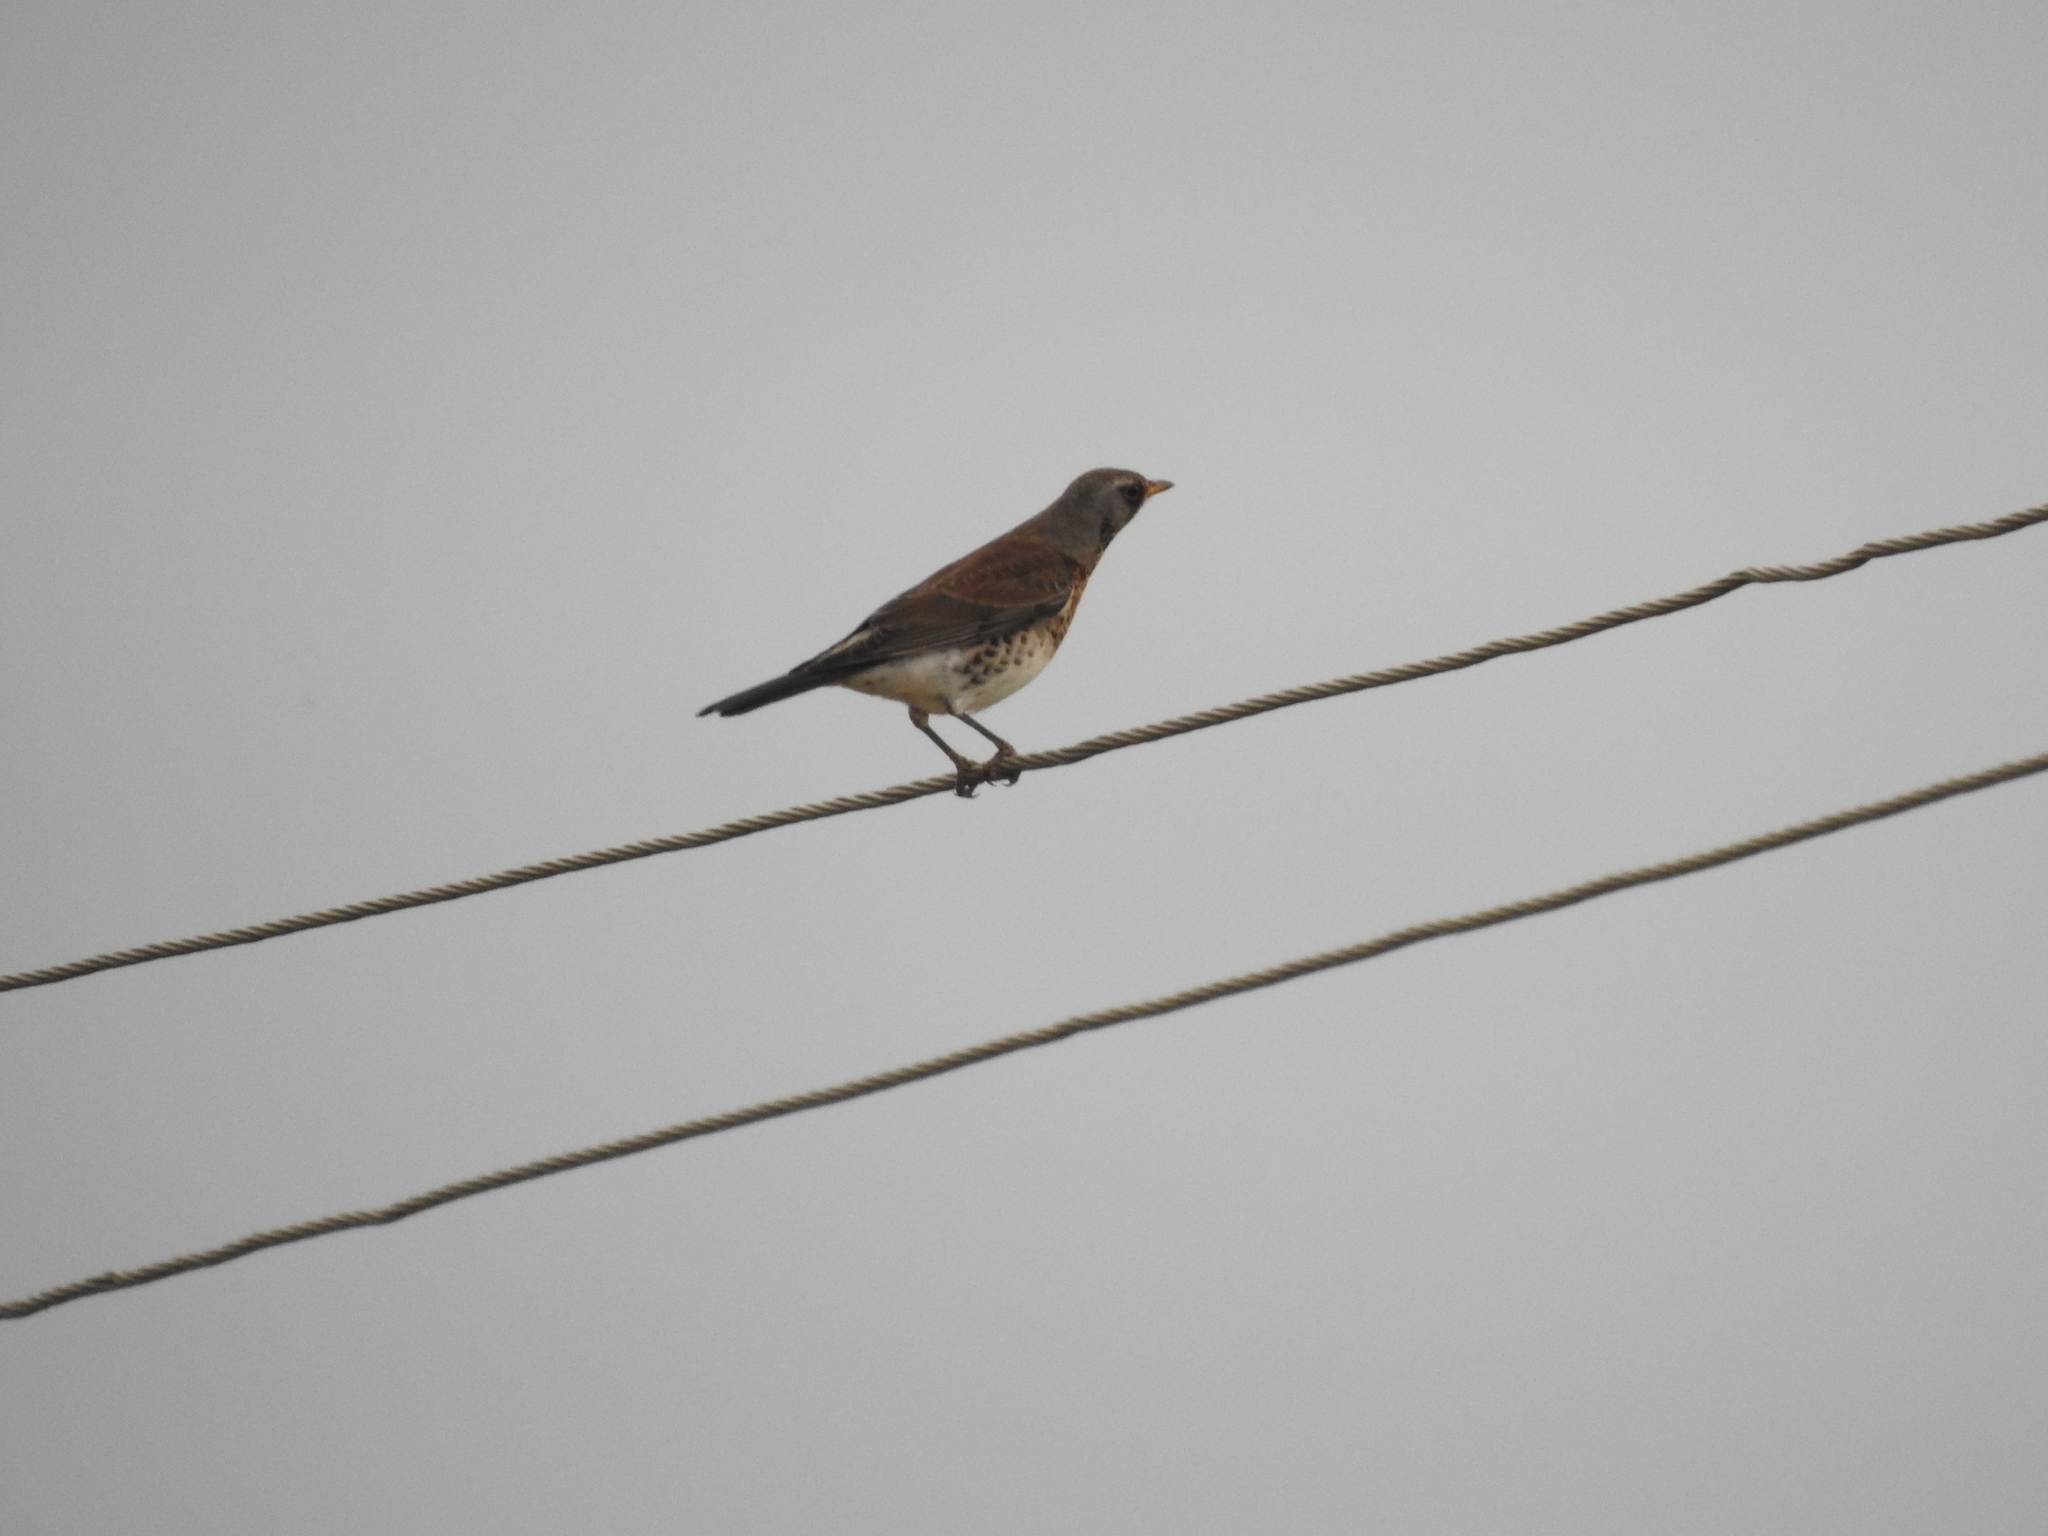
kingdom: Animalia
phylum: Chordata
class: Aves
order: Passeriformes
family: Turdidae
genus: Turdus
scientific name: Turdus pilaris
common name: Fieldfare
